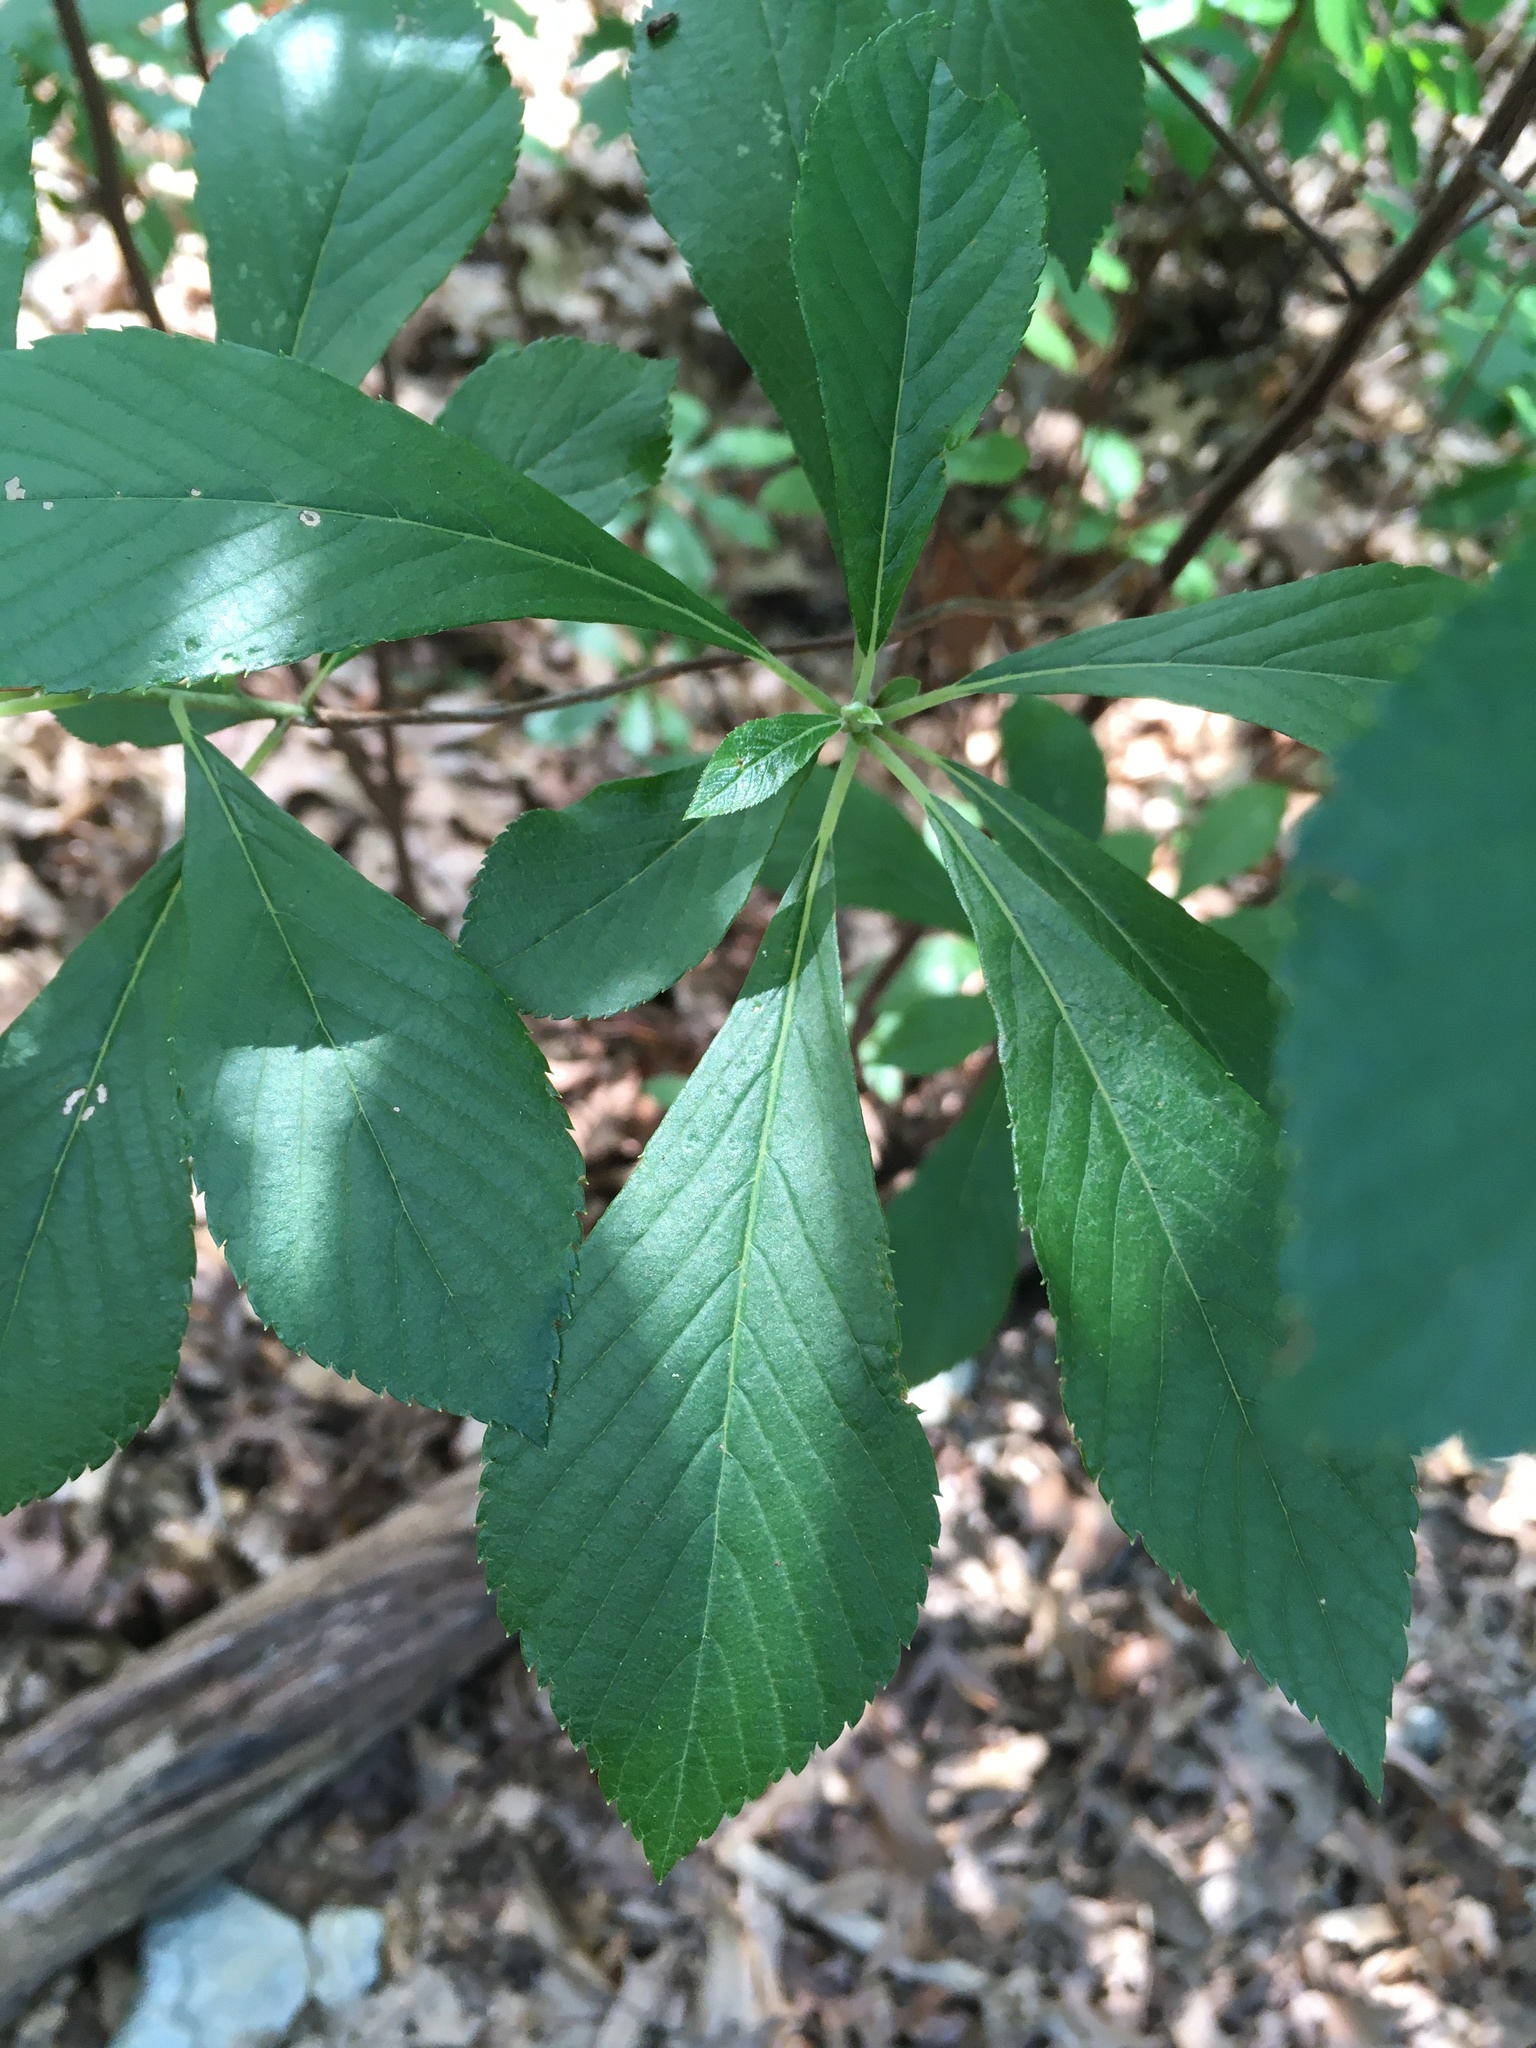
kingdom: Plantae
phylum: Tracheophyta
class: Magnoliopsida
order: Ericales
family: Clethraceae
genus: Clethra
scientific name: Clethra alnifolia
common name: Sweet pepperbush
